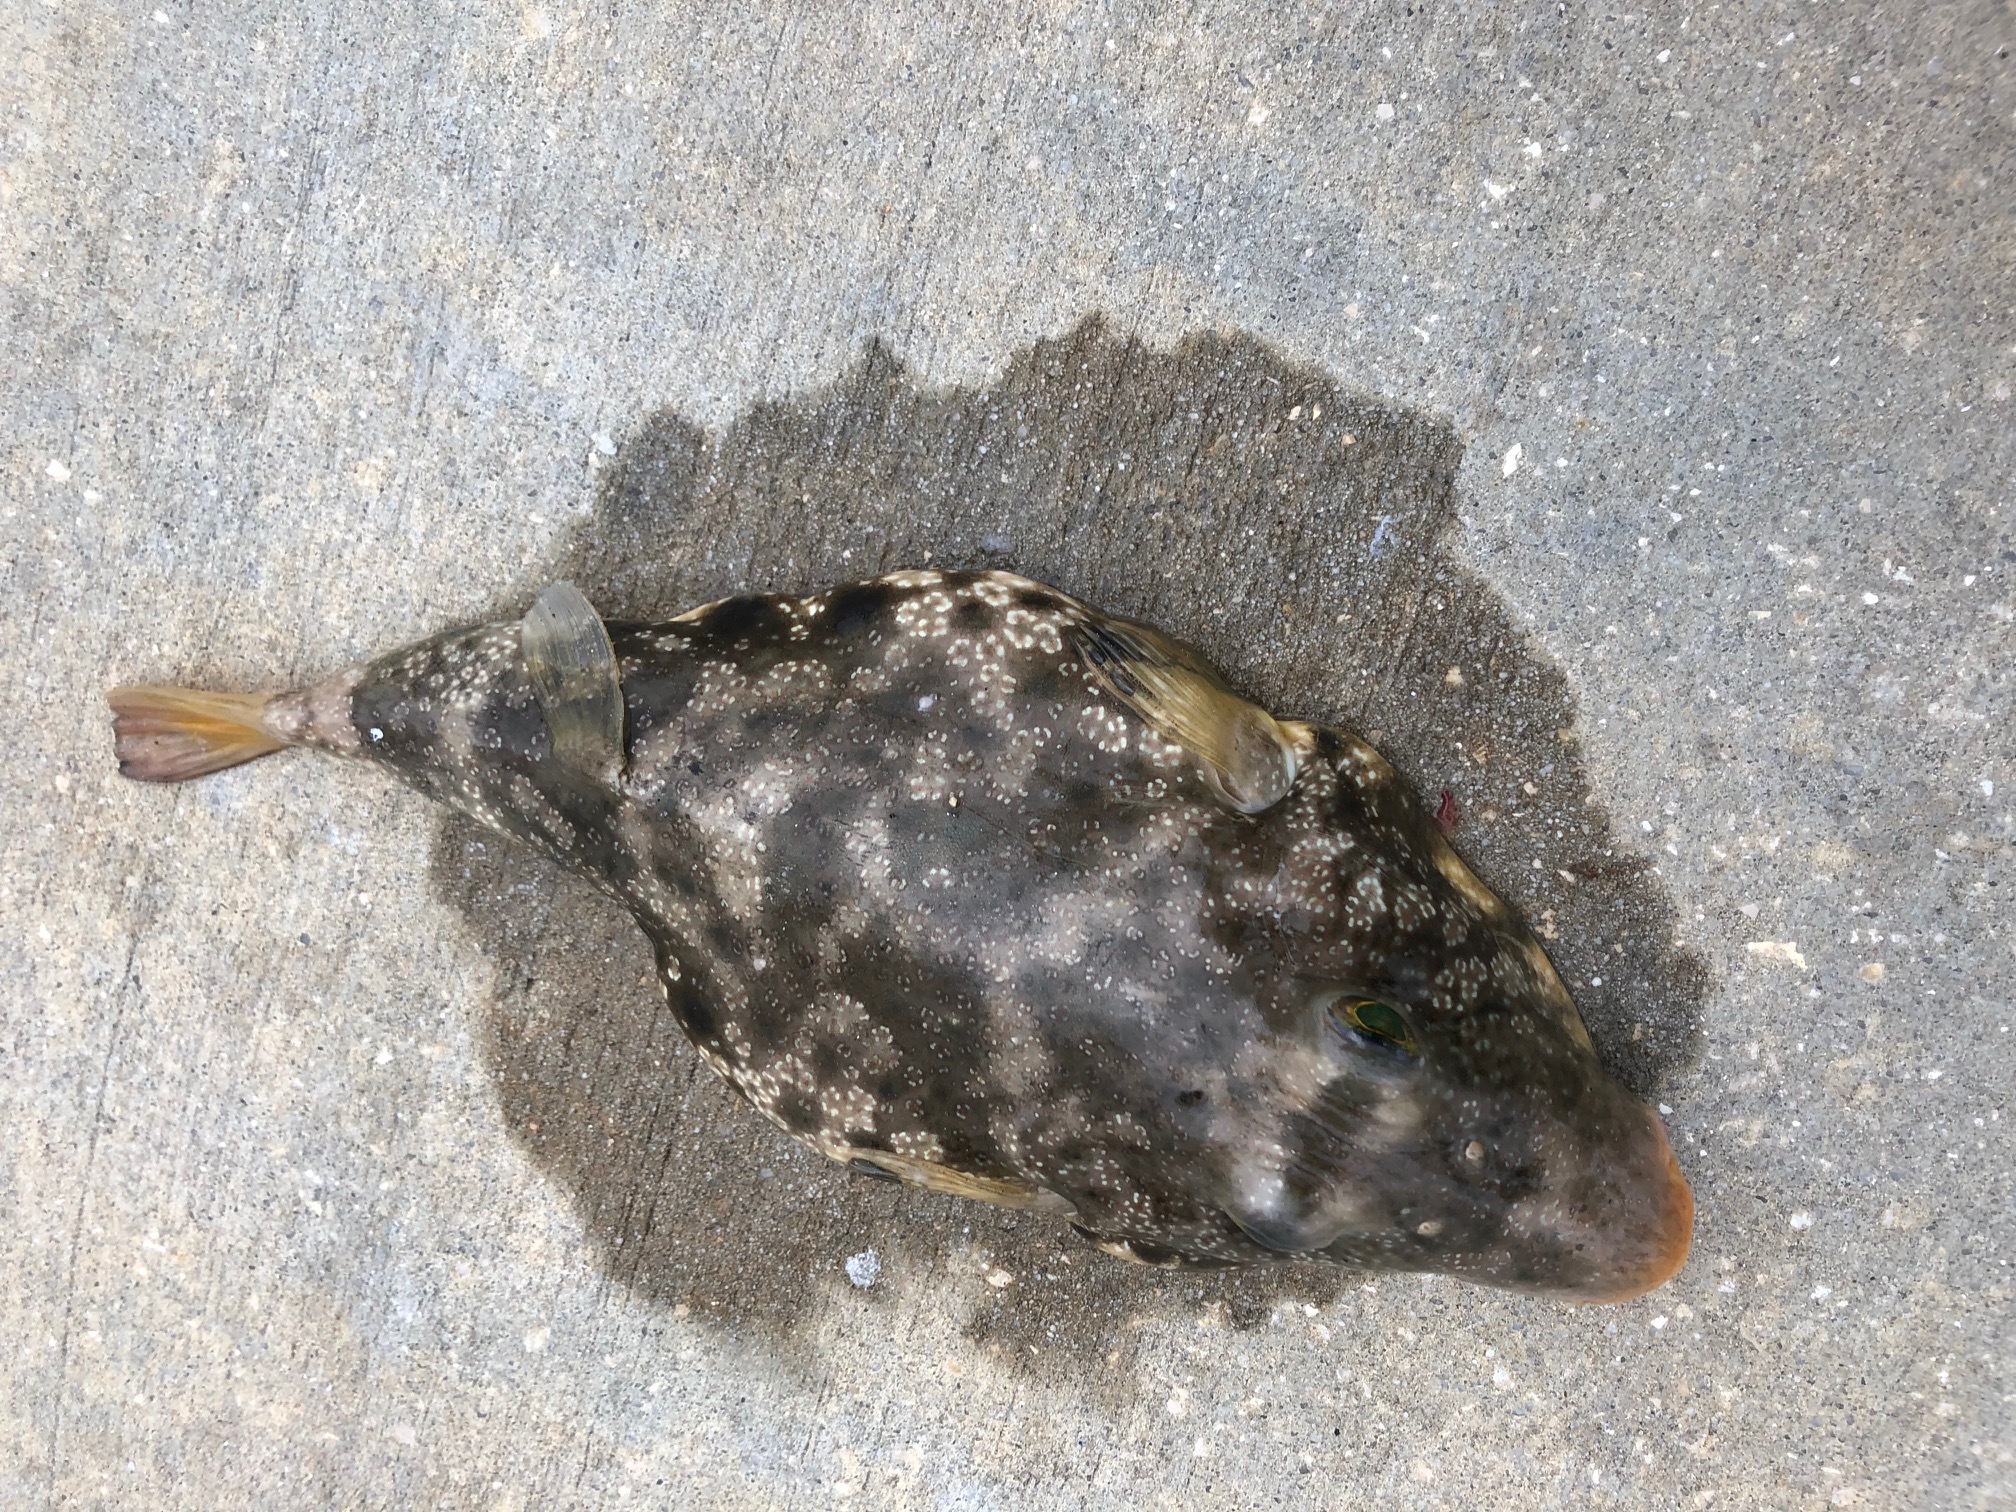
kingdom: Animalia
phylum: Chordata
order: Tetraodontiformes
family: Tetraodontidae
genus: Sphoeroides
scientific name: Sphoeroides nephelus
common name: Southern puffer
